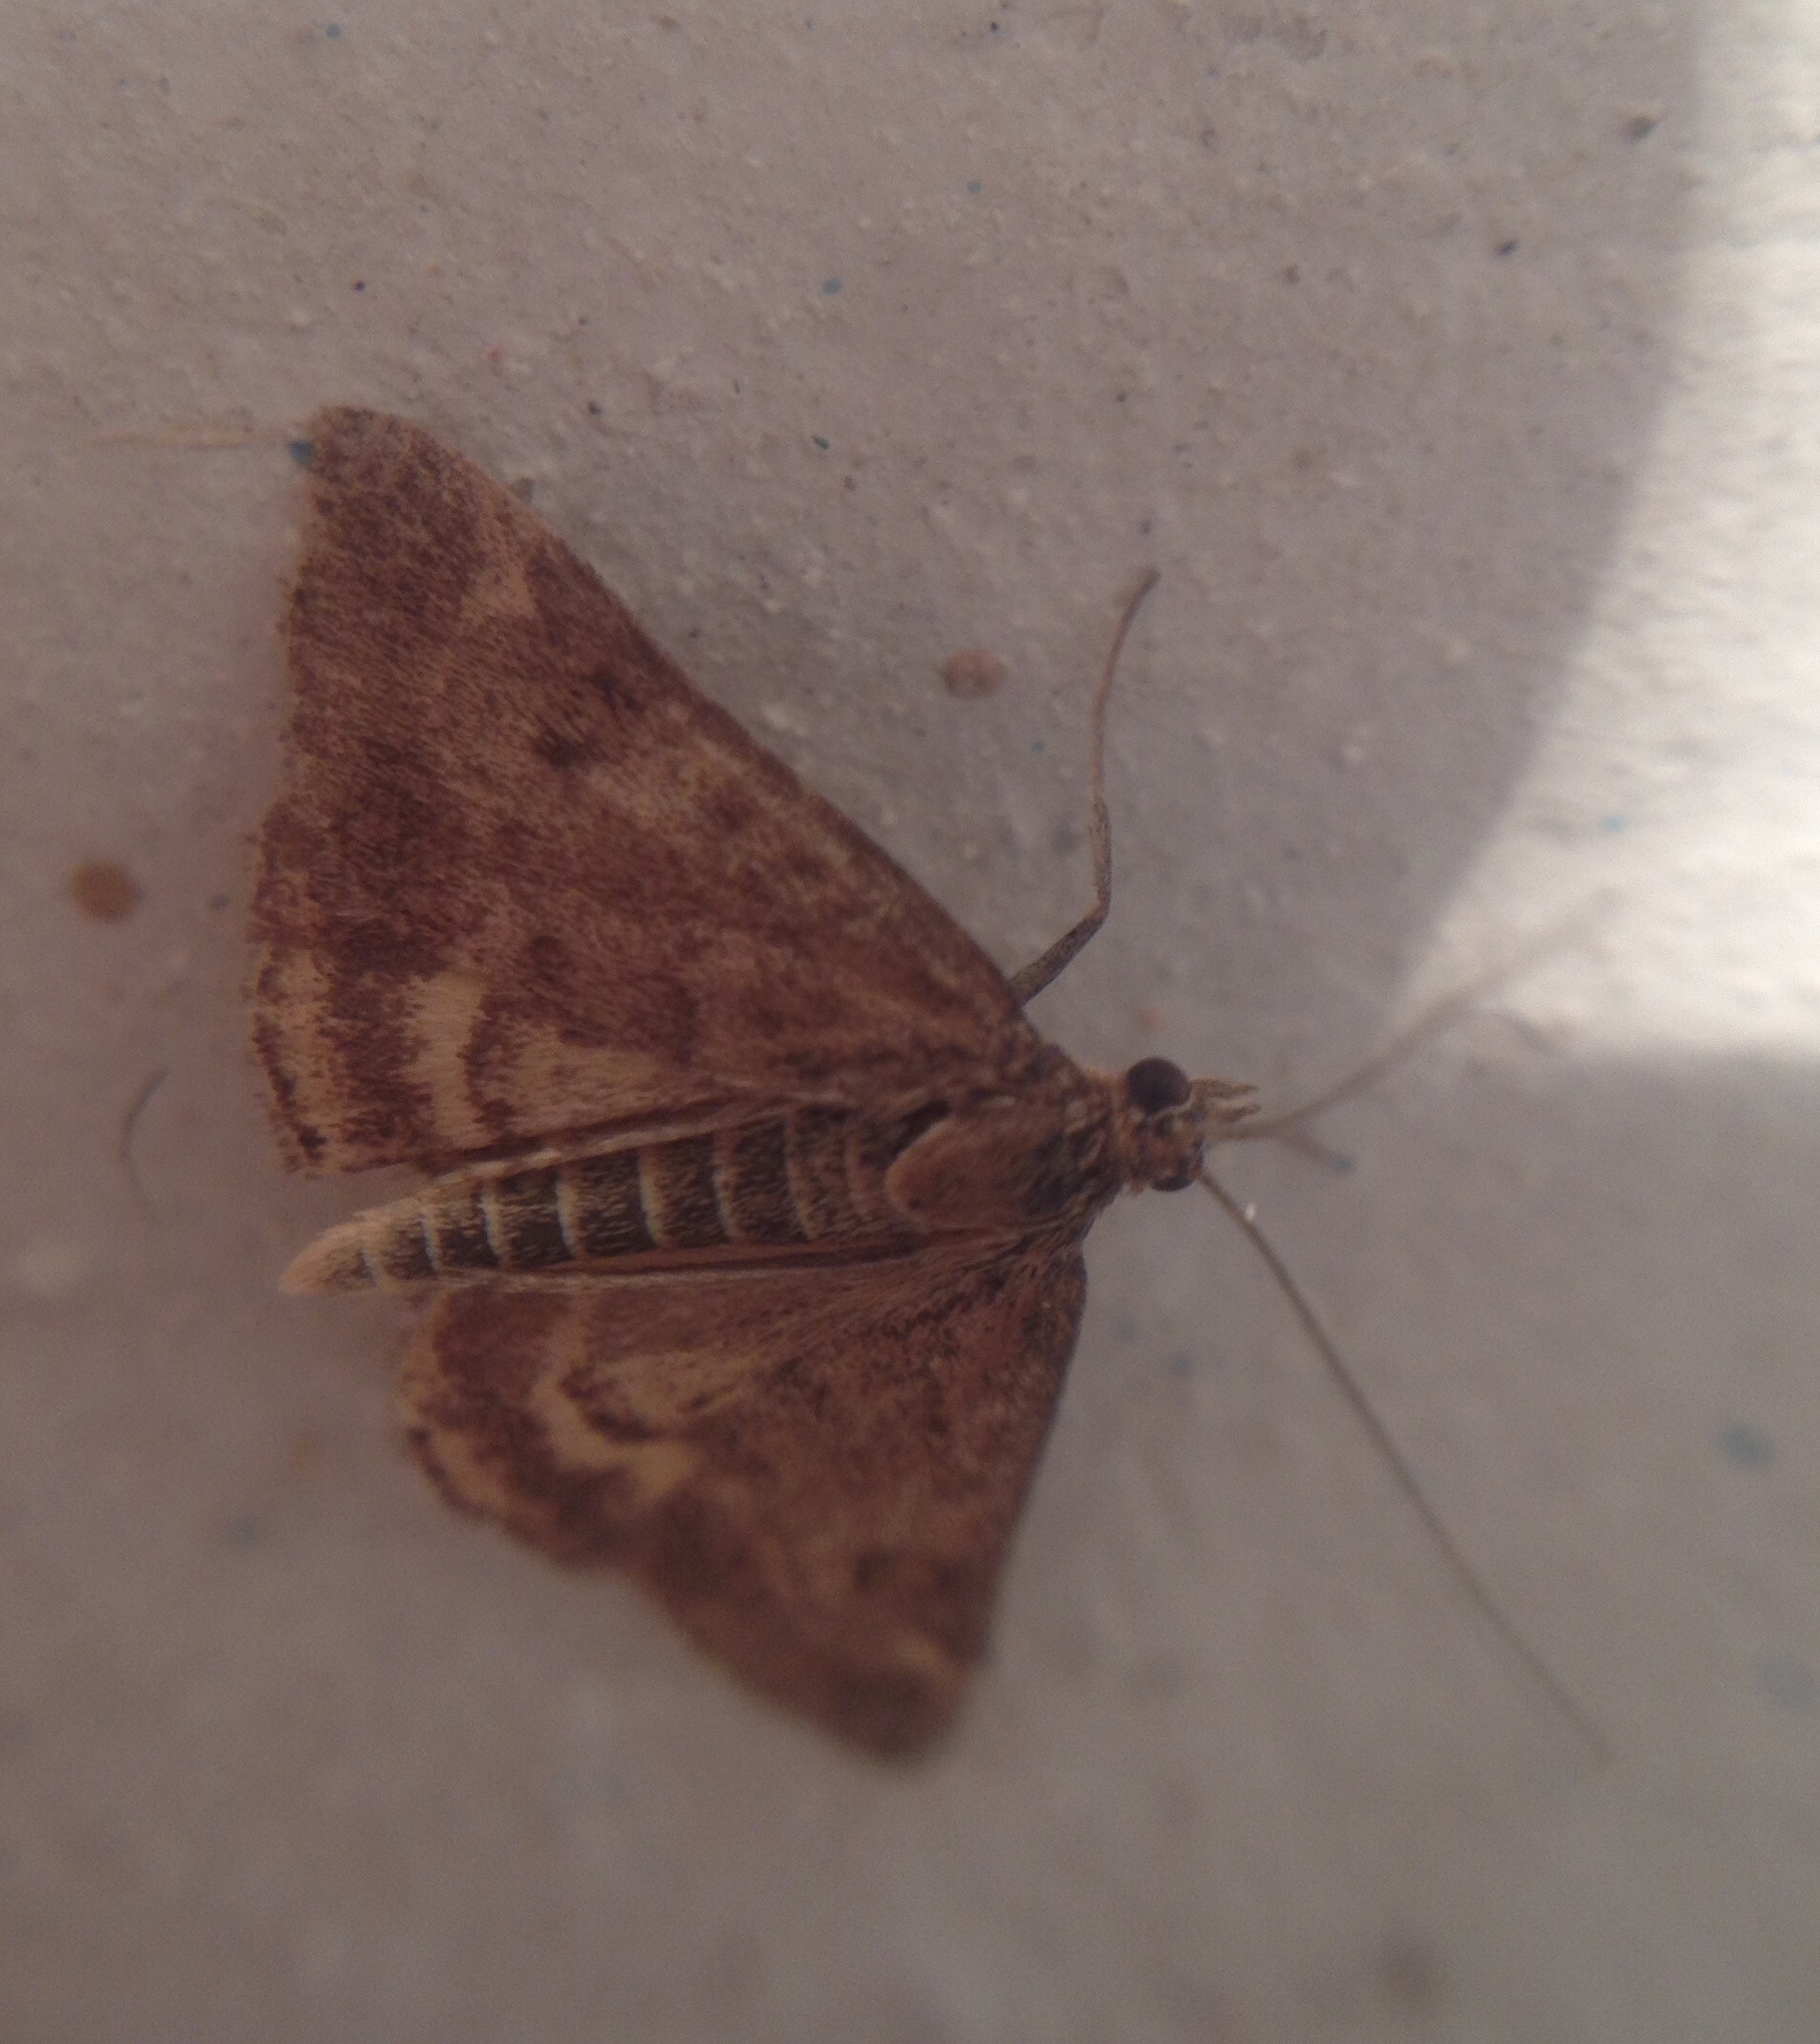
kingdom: Animalia
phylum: Arthropoda
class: Insecta
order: Lepidoptera
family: Crambidae
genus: Pyrausta
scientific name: Pyrausta despicata
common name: Straw-barred pearl
